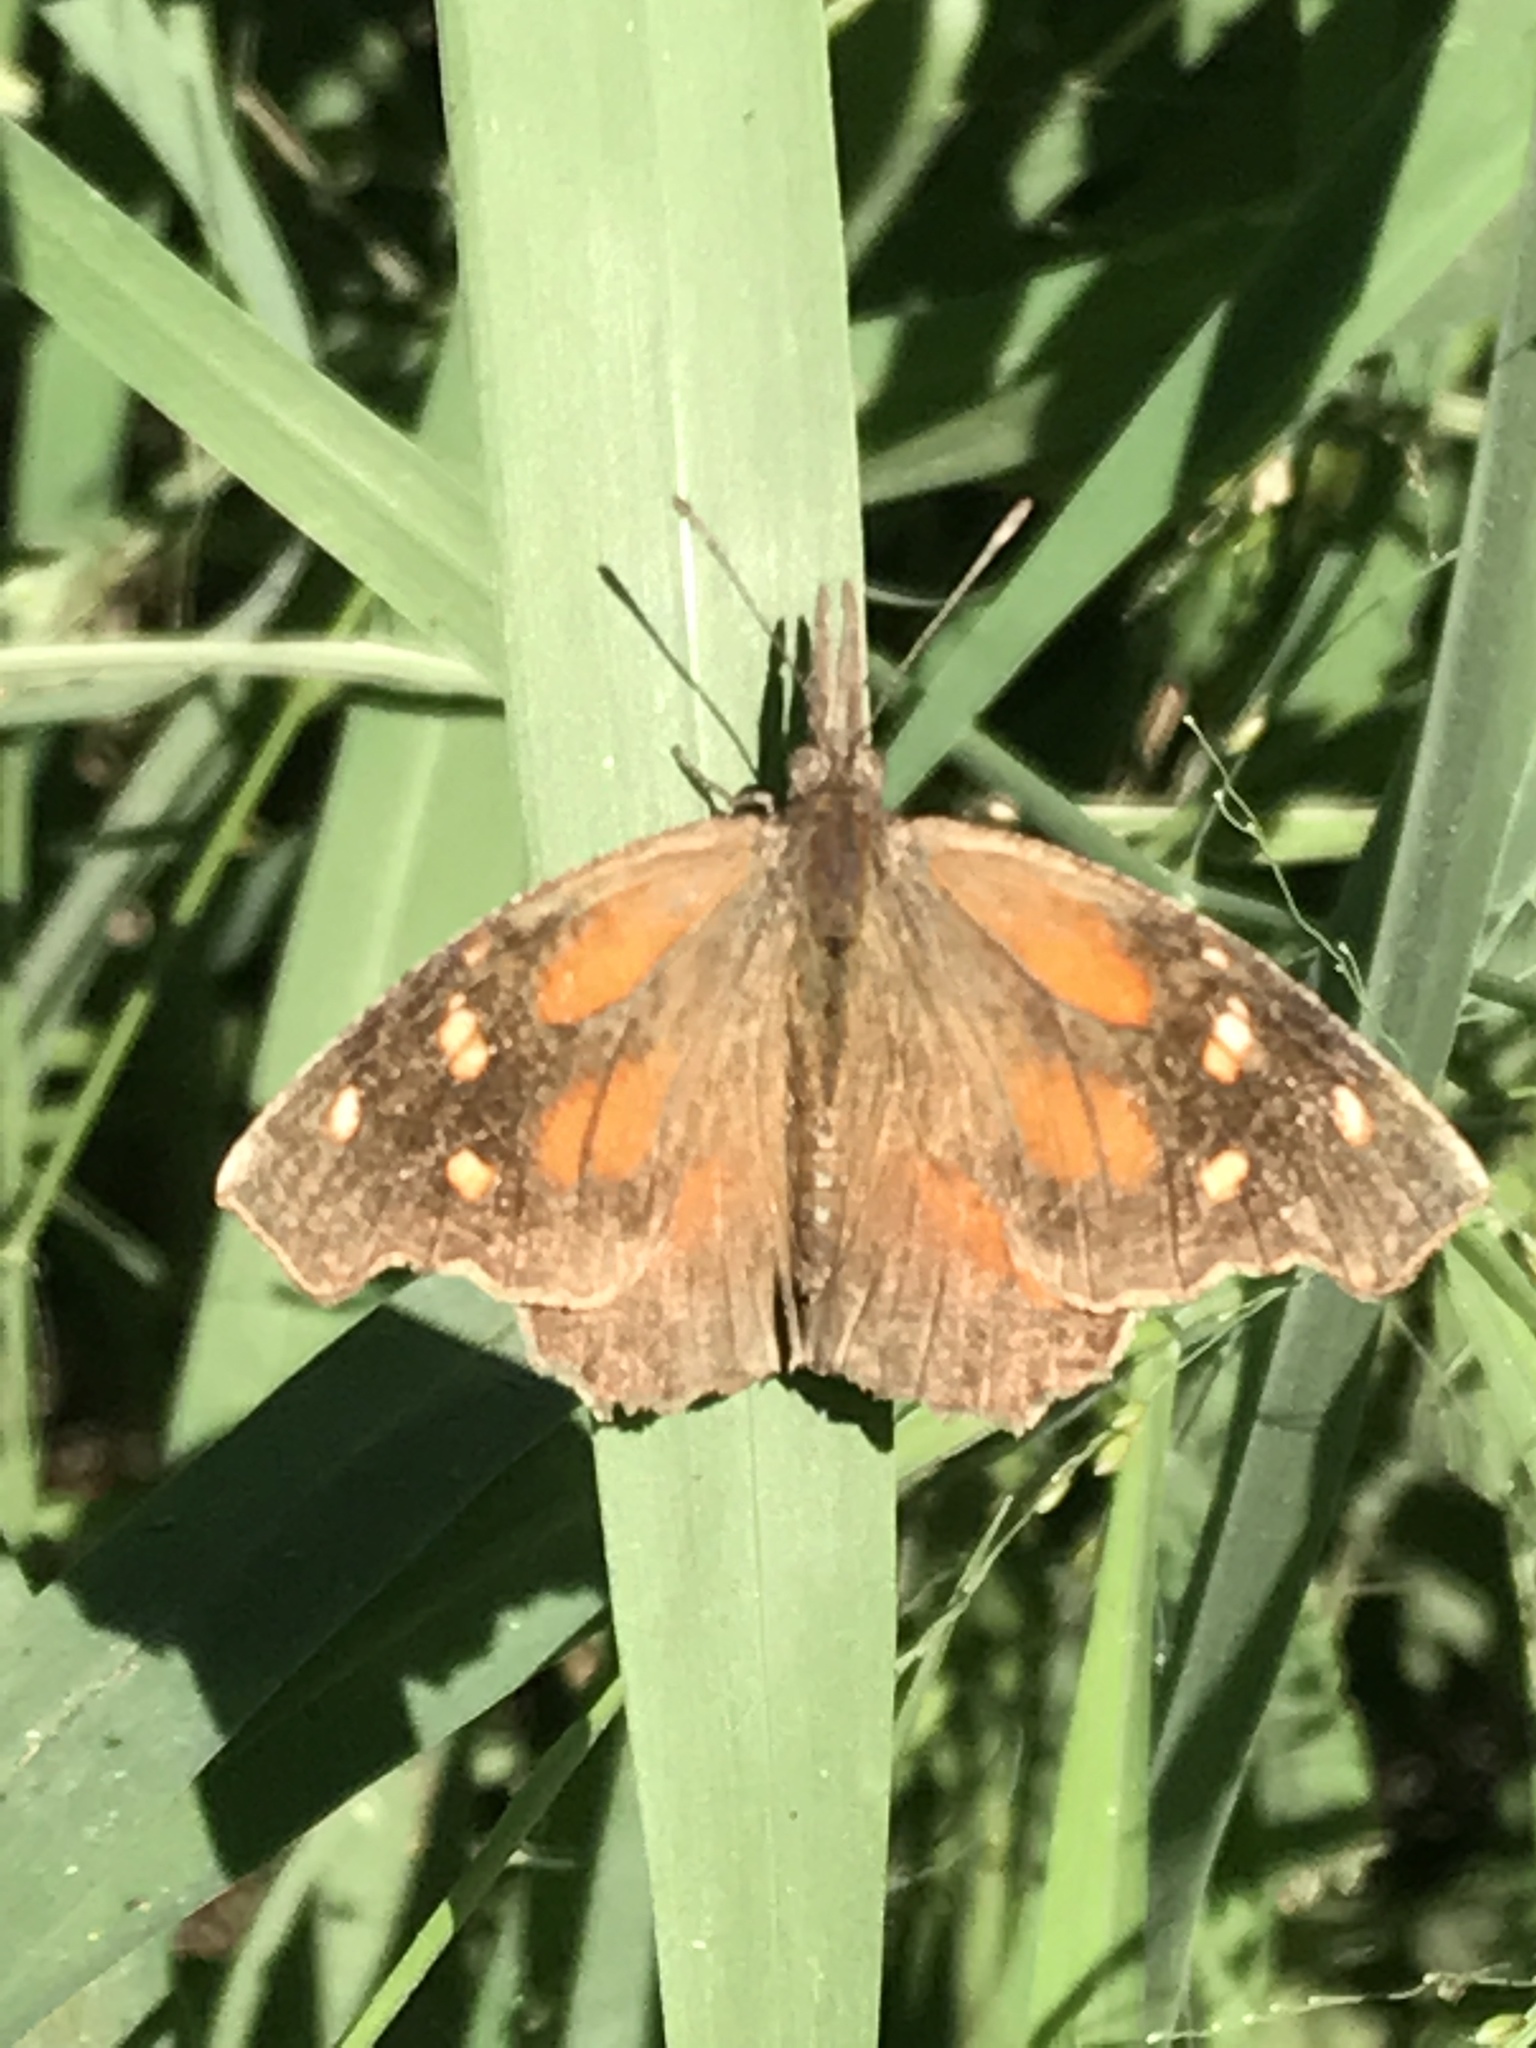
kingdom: Animalia
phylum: Arthropoda
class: Insecta
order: Lepidoptera
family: Nymphalidae
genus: Libytheana
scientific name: Libytheana carinenta
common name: American snout
